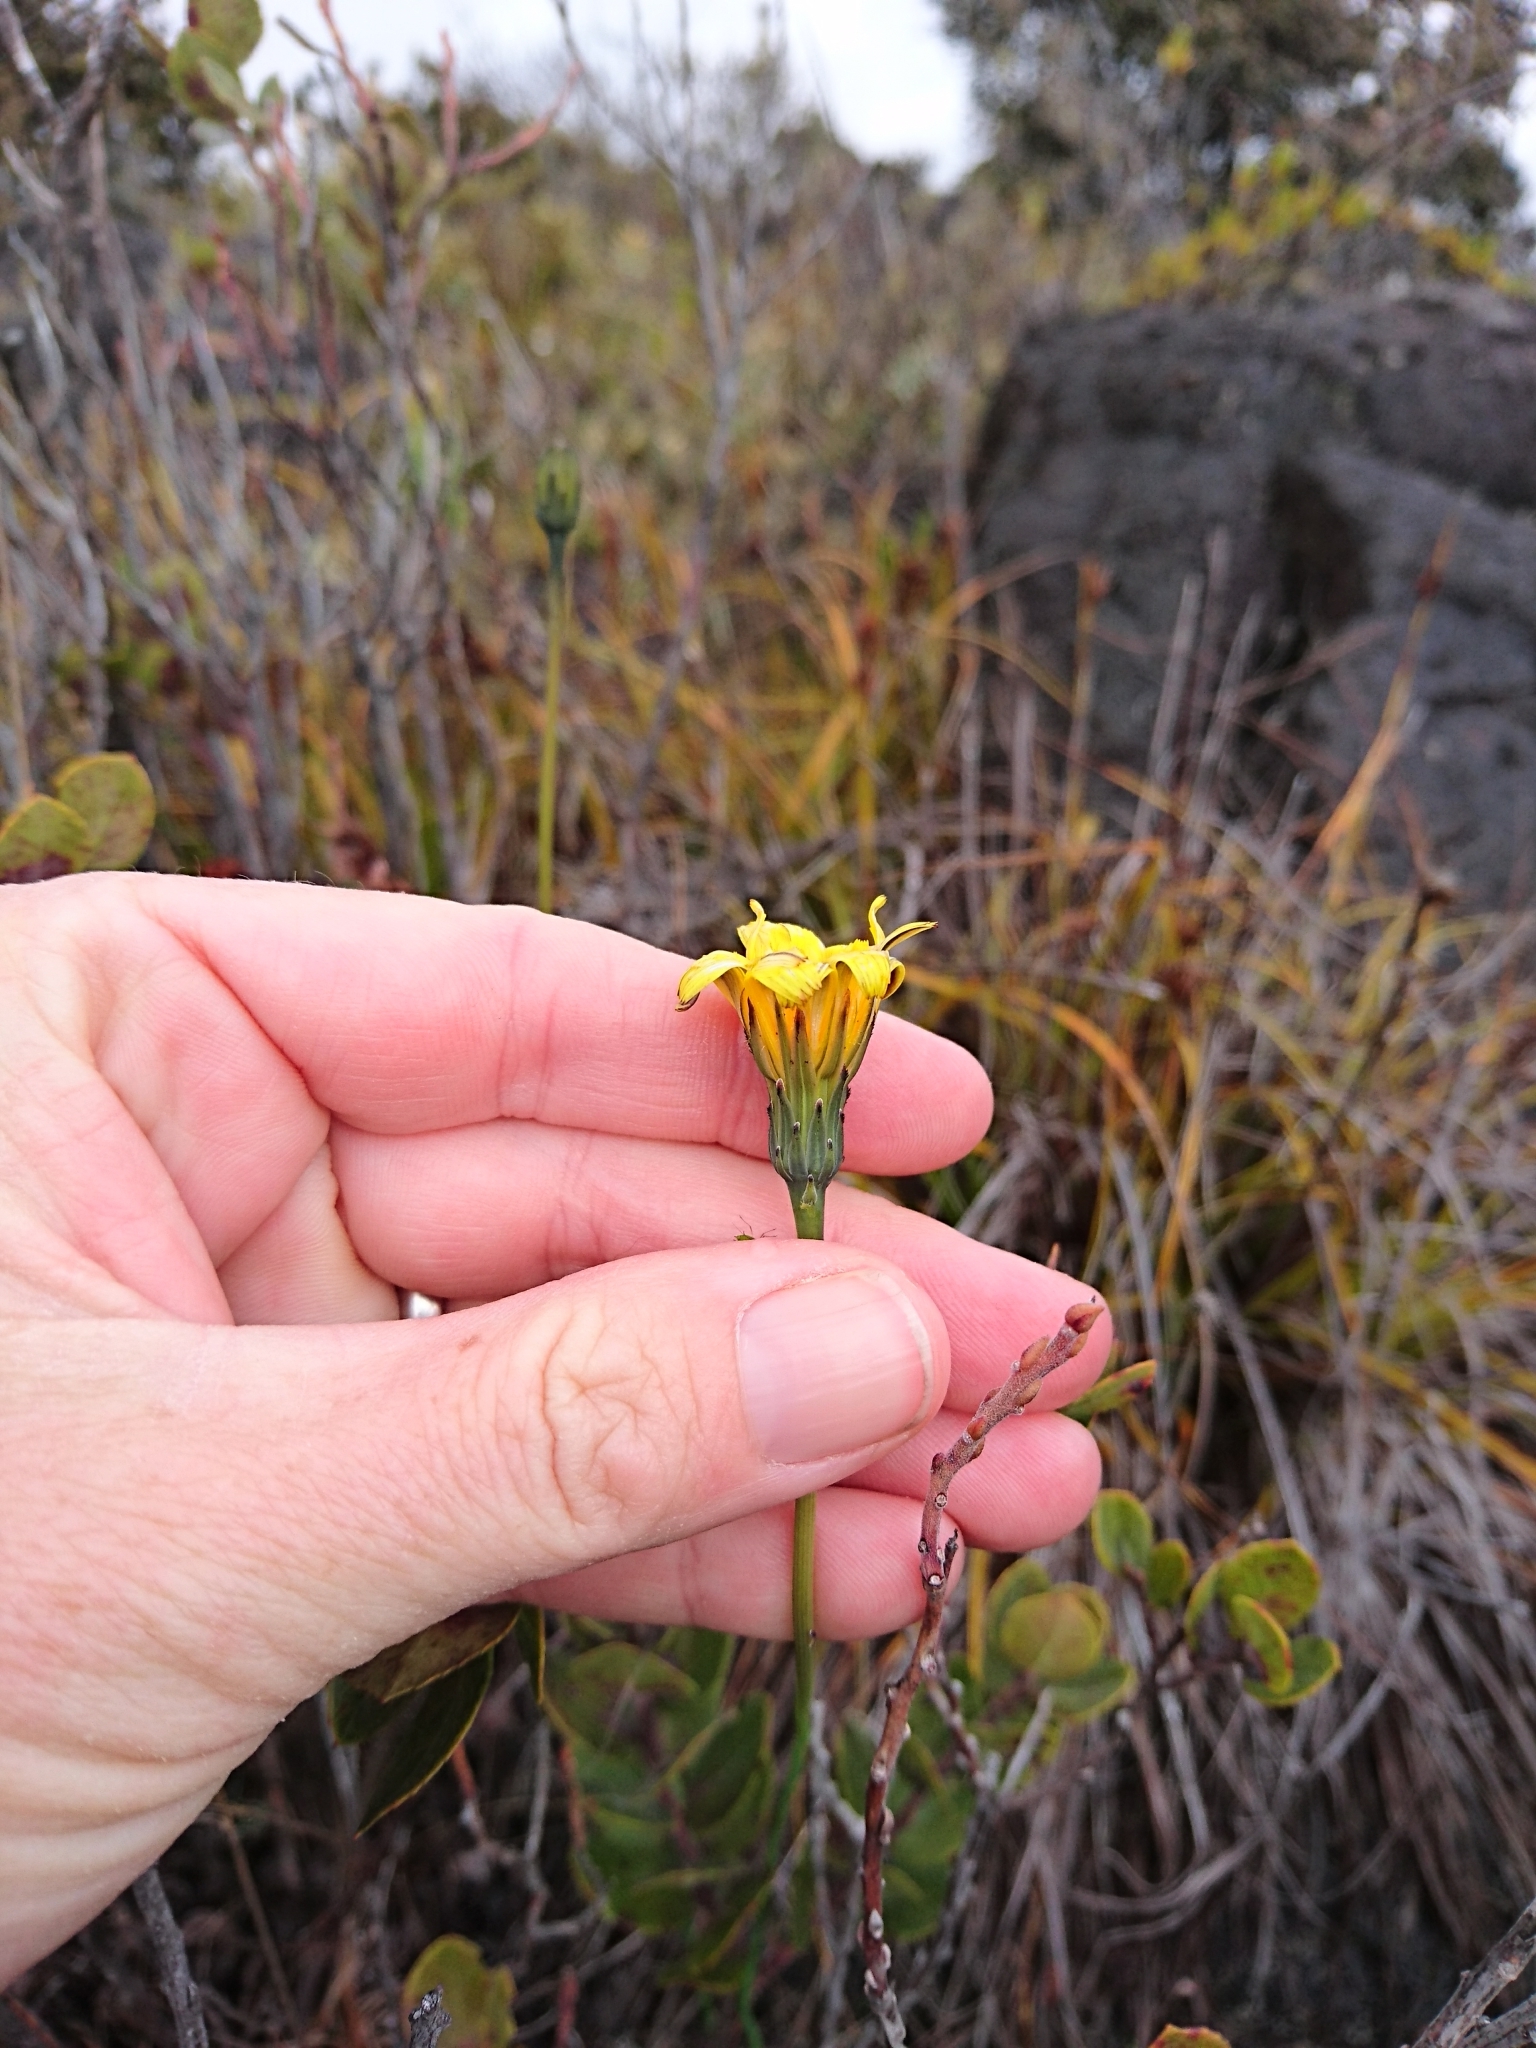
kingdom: Plantae
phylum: Tracheophyta
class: Magnoliopsida
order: Asterales
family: Asteraceae
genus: Hypochaeris
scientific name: Hypochaeris radicata
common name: Flatweed
